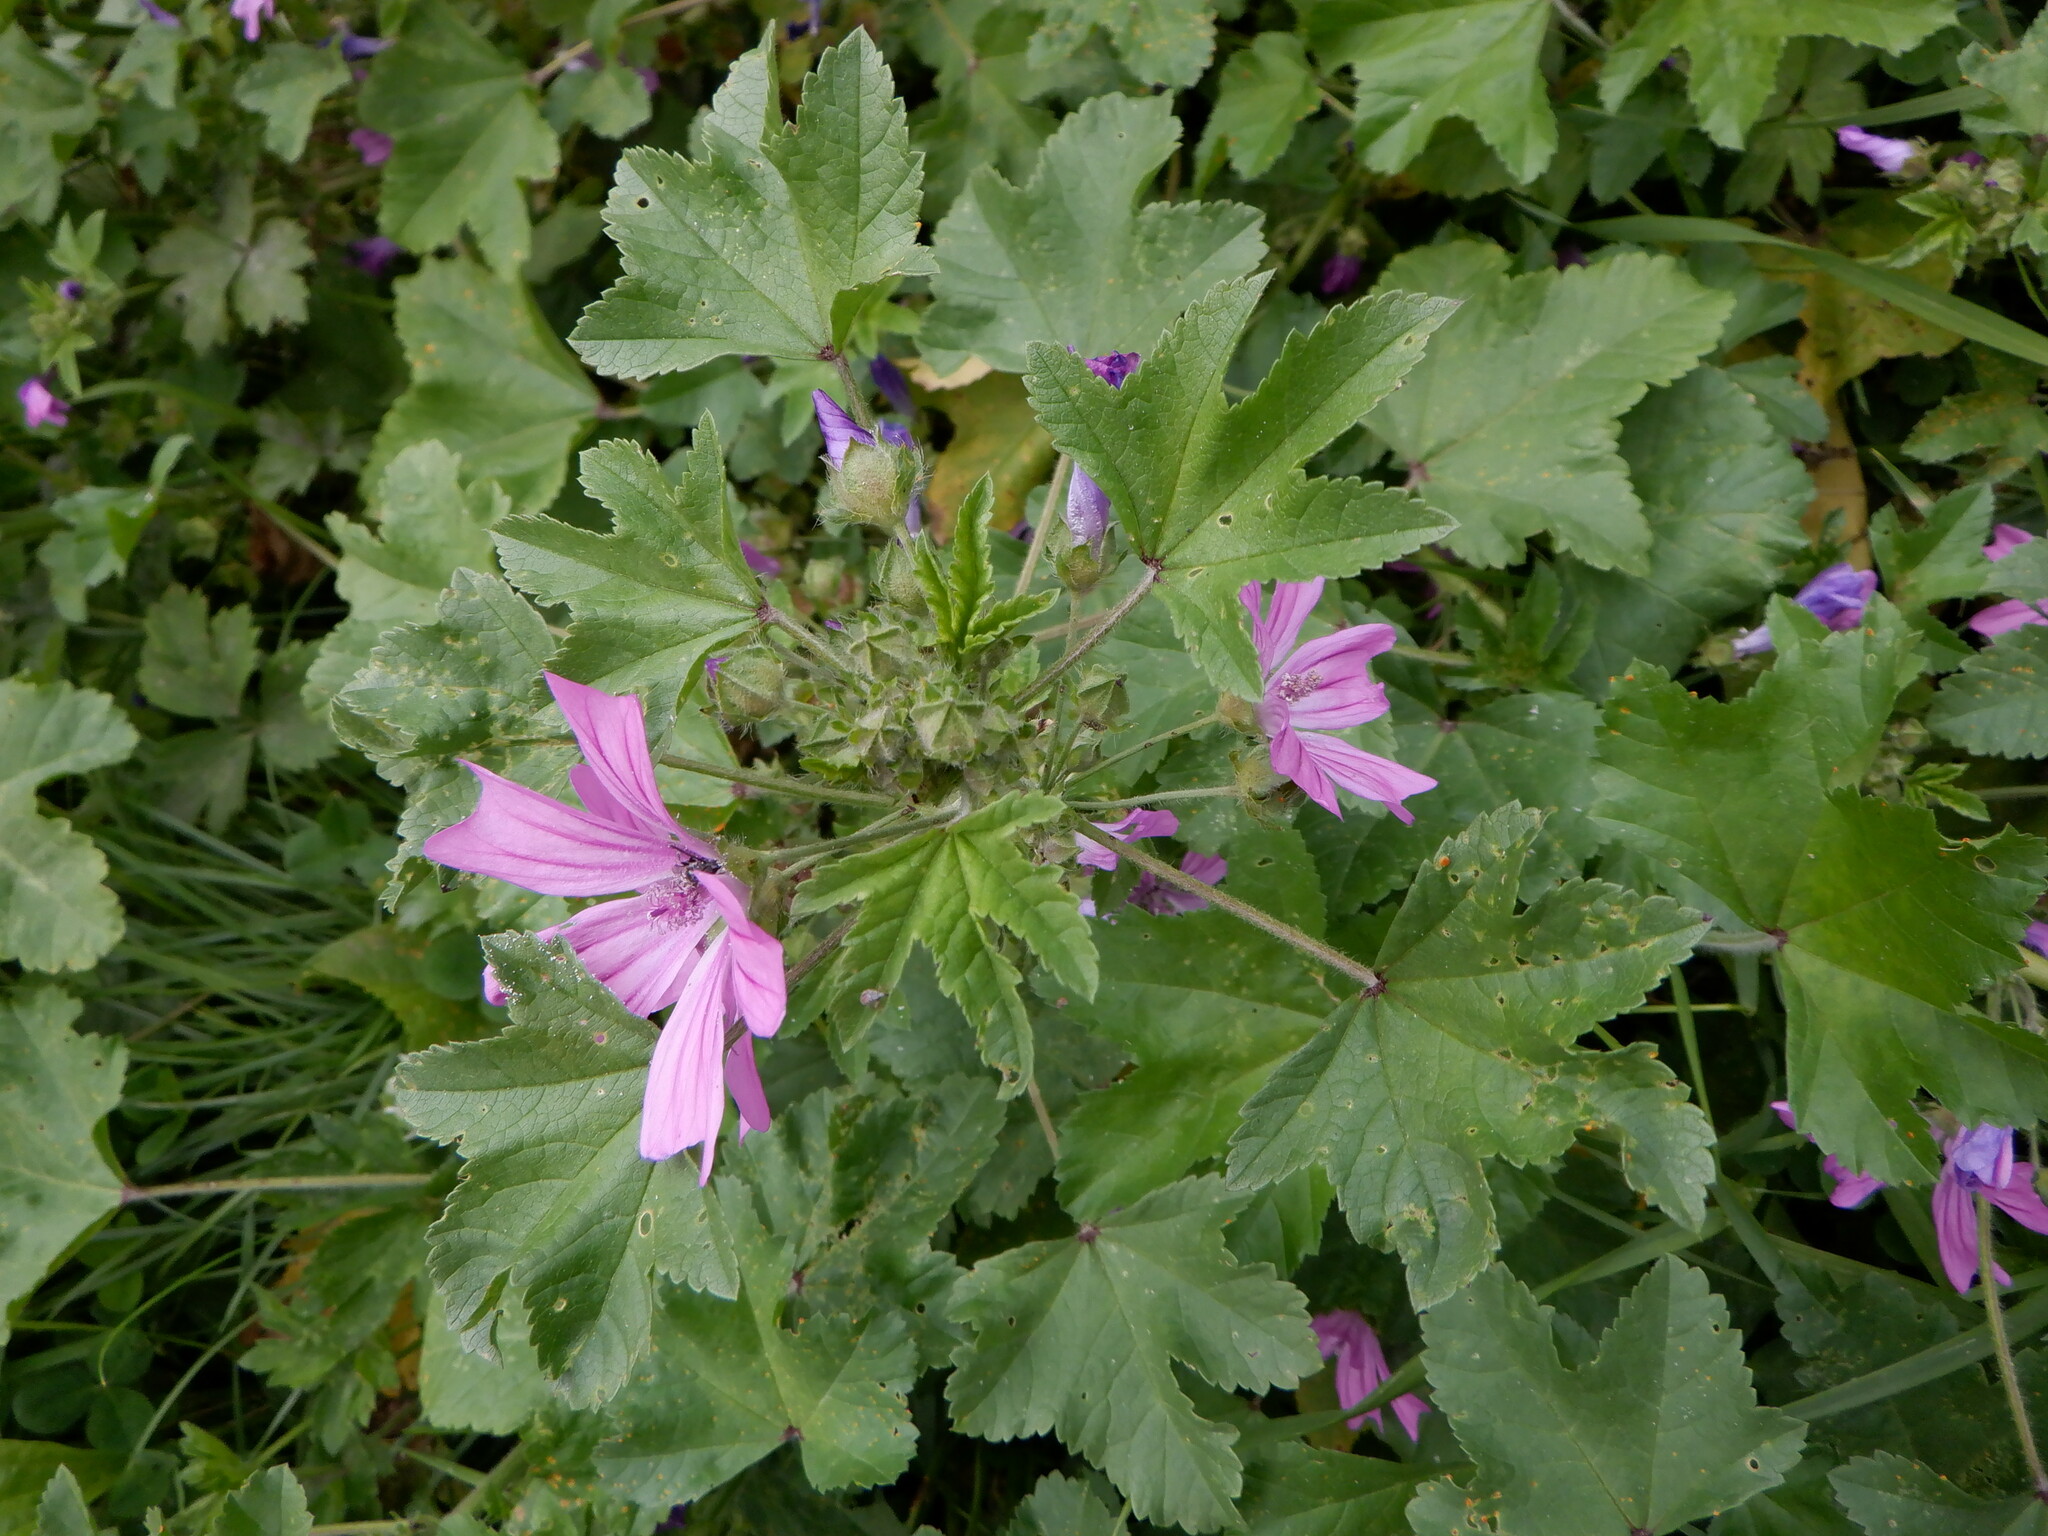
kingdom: Plantae
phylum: Tracheophyta
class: Magnoliopsida
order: Malvales
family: Malvaceae
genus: Malva
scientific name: Malva sylvestris
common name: Common mallow
